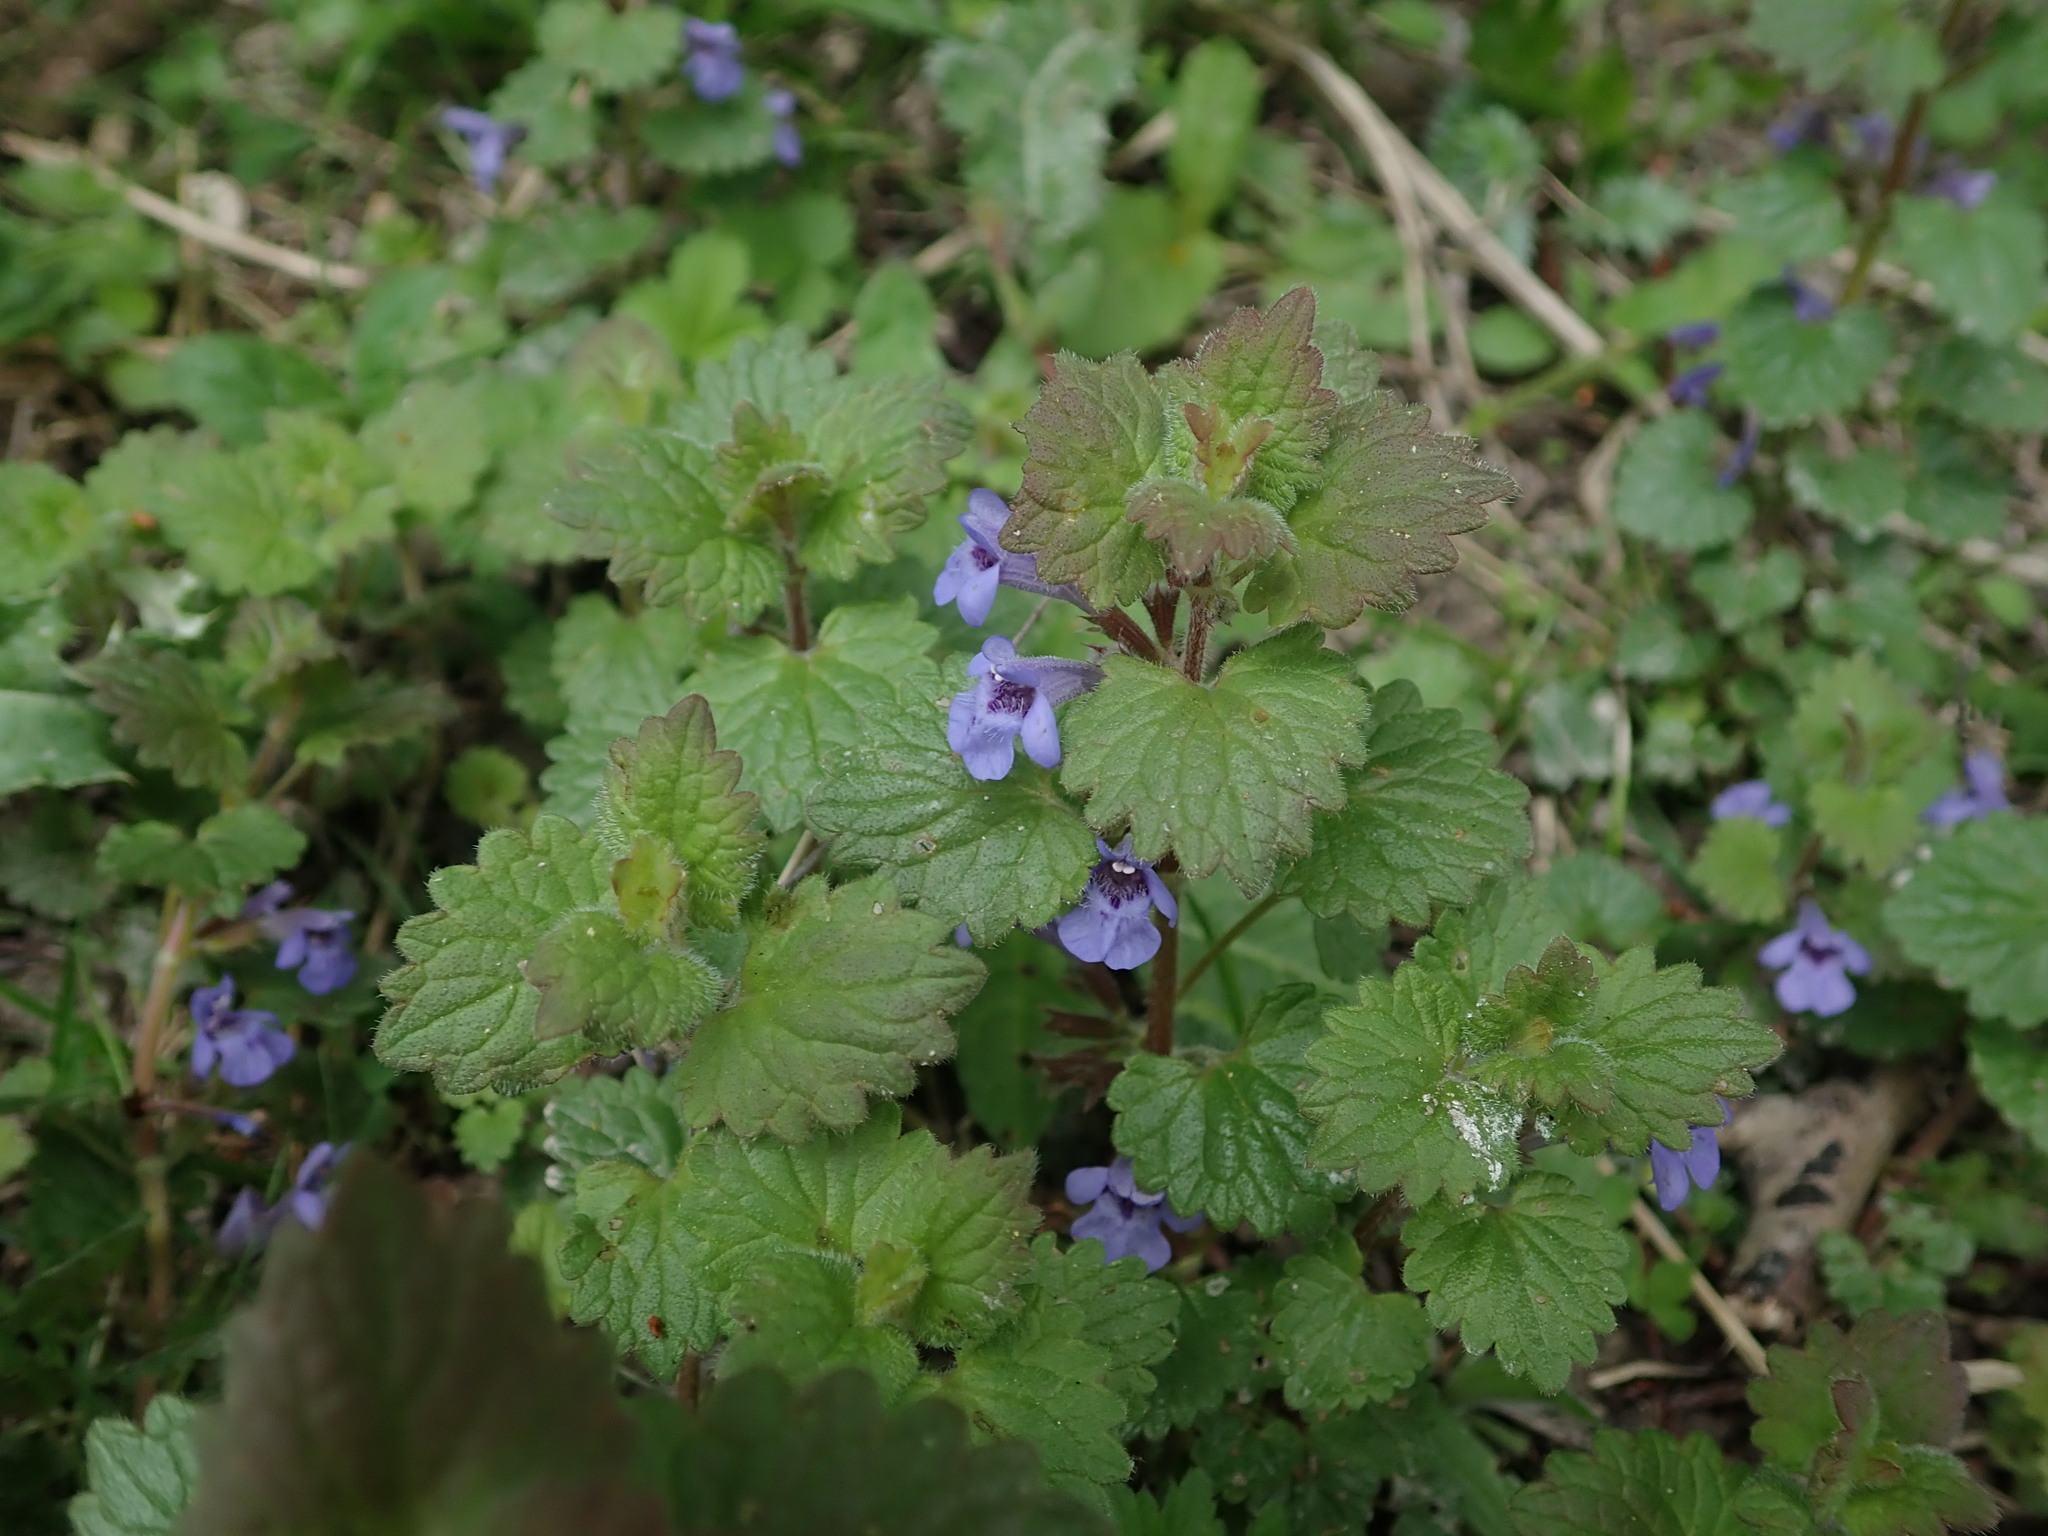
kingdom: Plantae
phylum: Tracheophyta
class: Magnoliopsida
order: Lamiales
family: Lamiaceae
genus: Glechoma
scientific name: Glechoma hederacea
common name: Ground ivy
